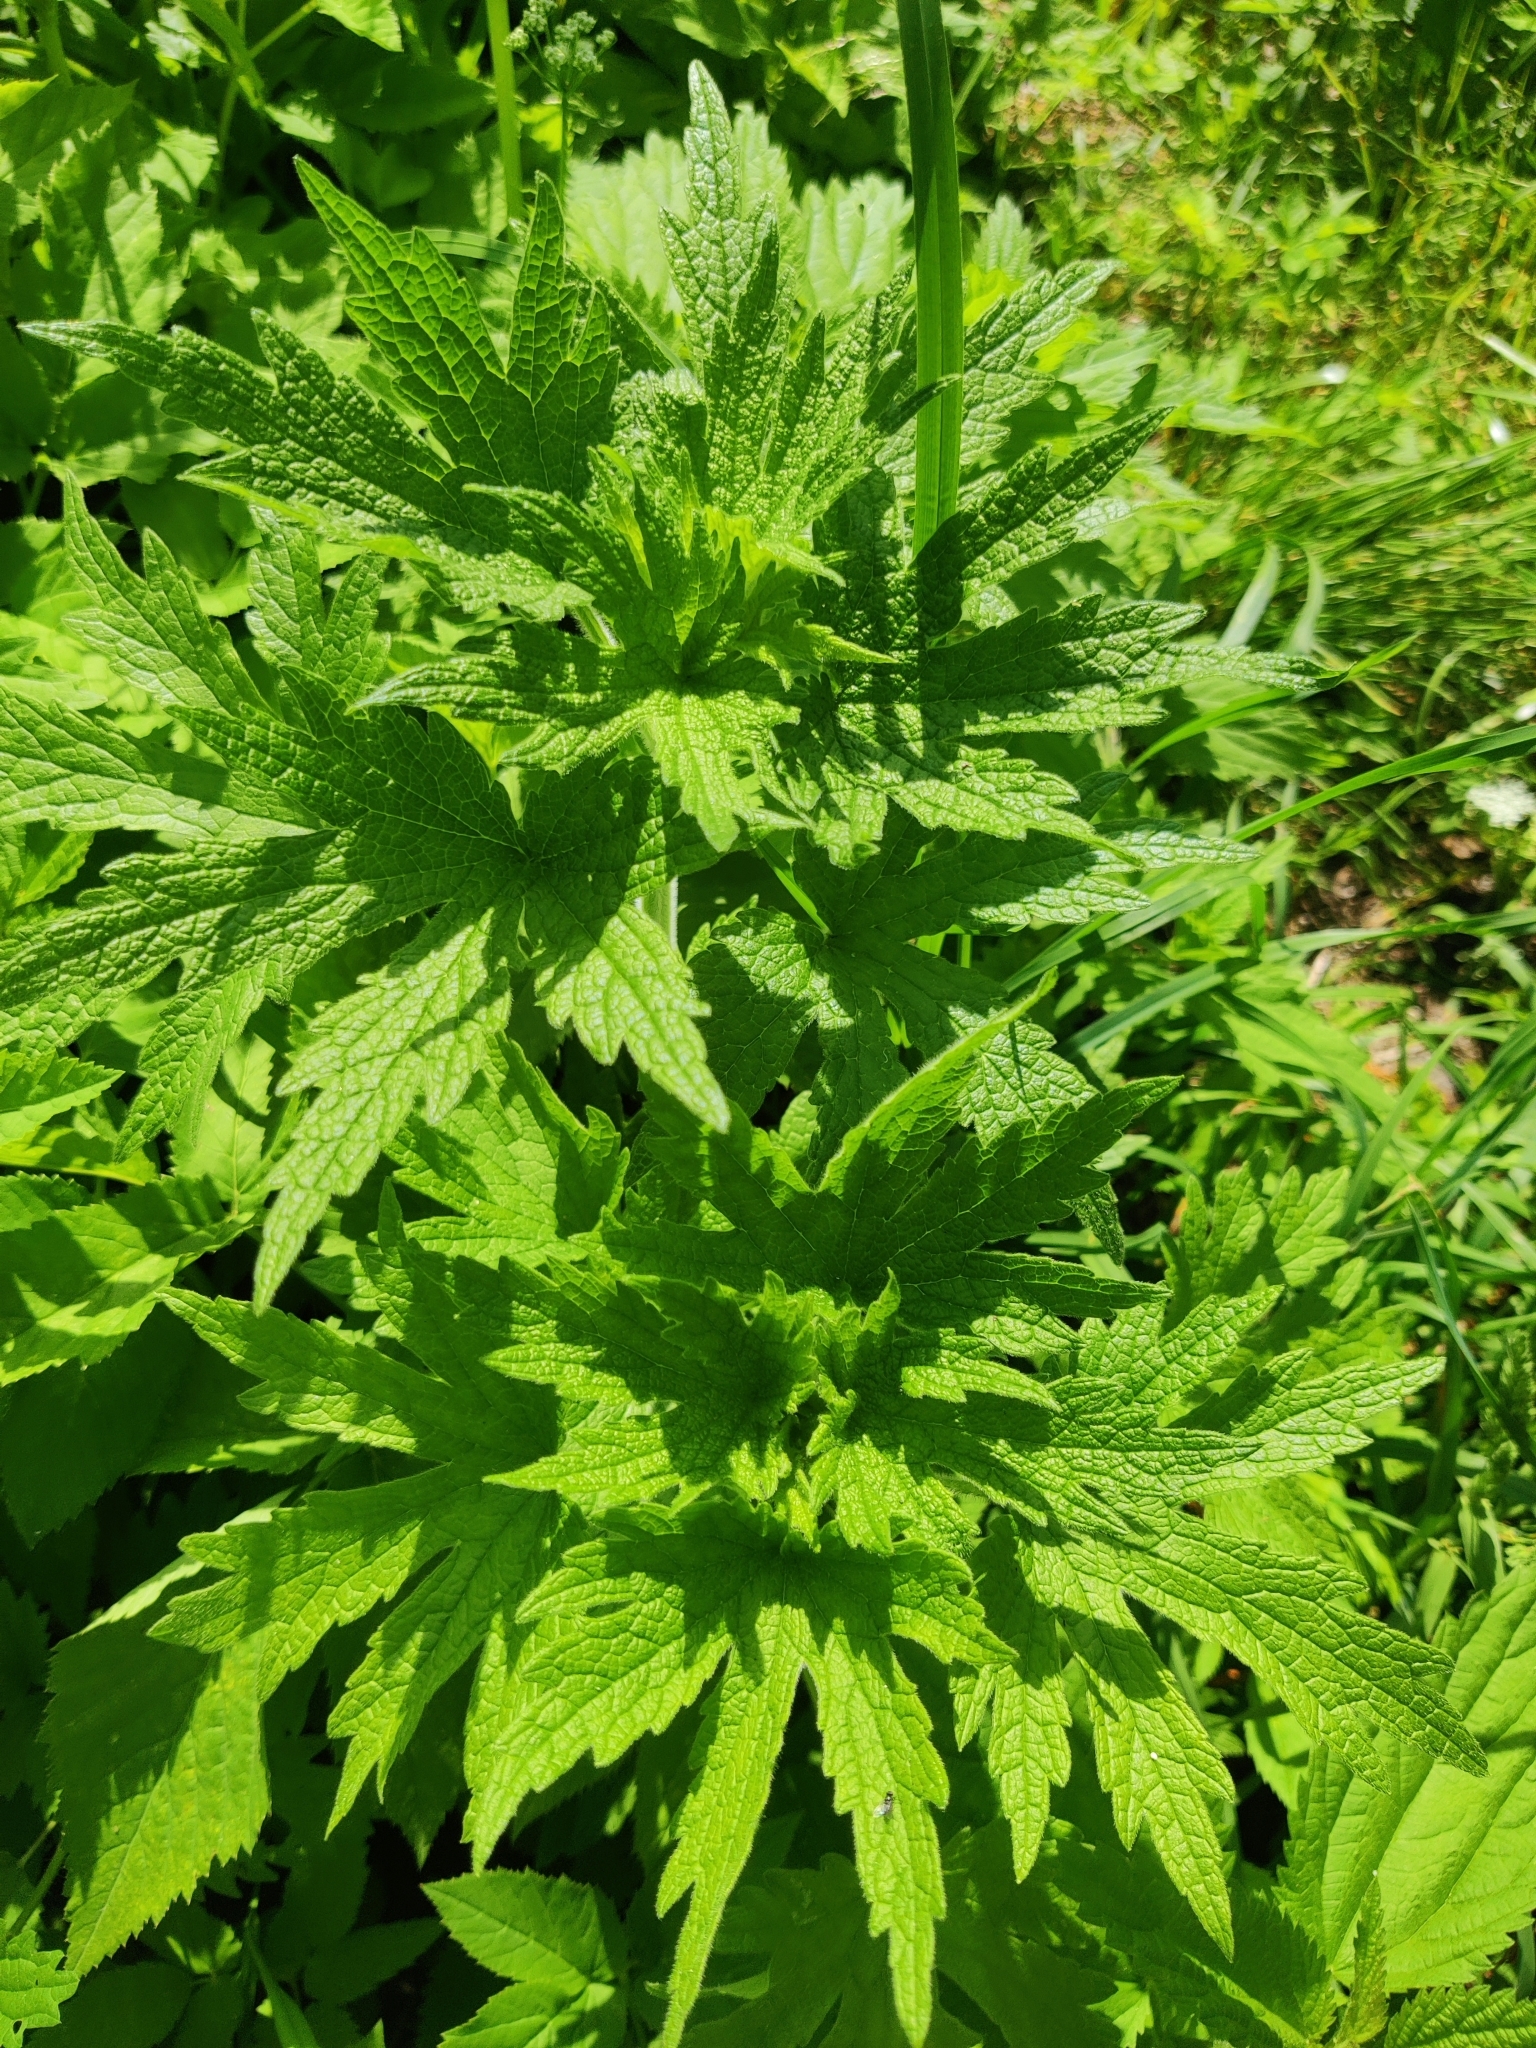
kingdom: Plantae
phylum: Tracheophyta
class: Magnoliopsida
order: Lamiales
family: Lamiaceae
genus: Leonurus
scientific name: Leonurus quinquelobatus
